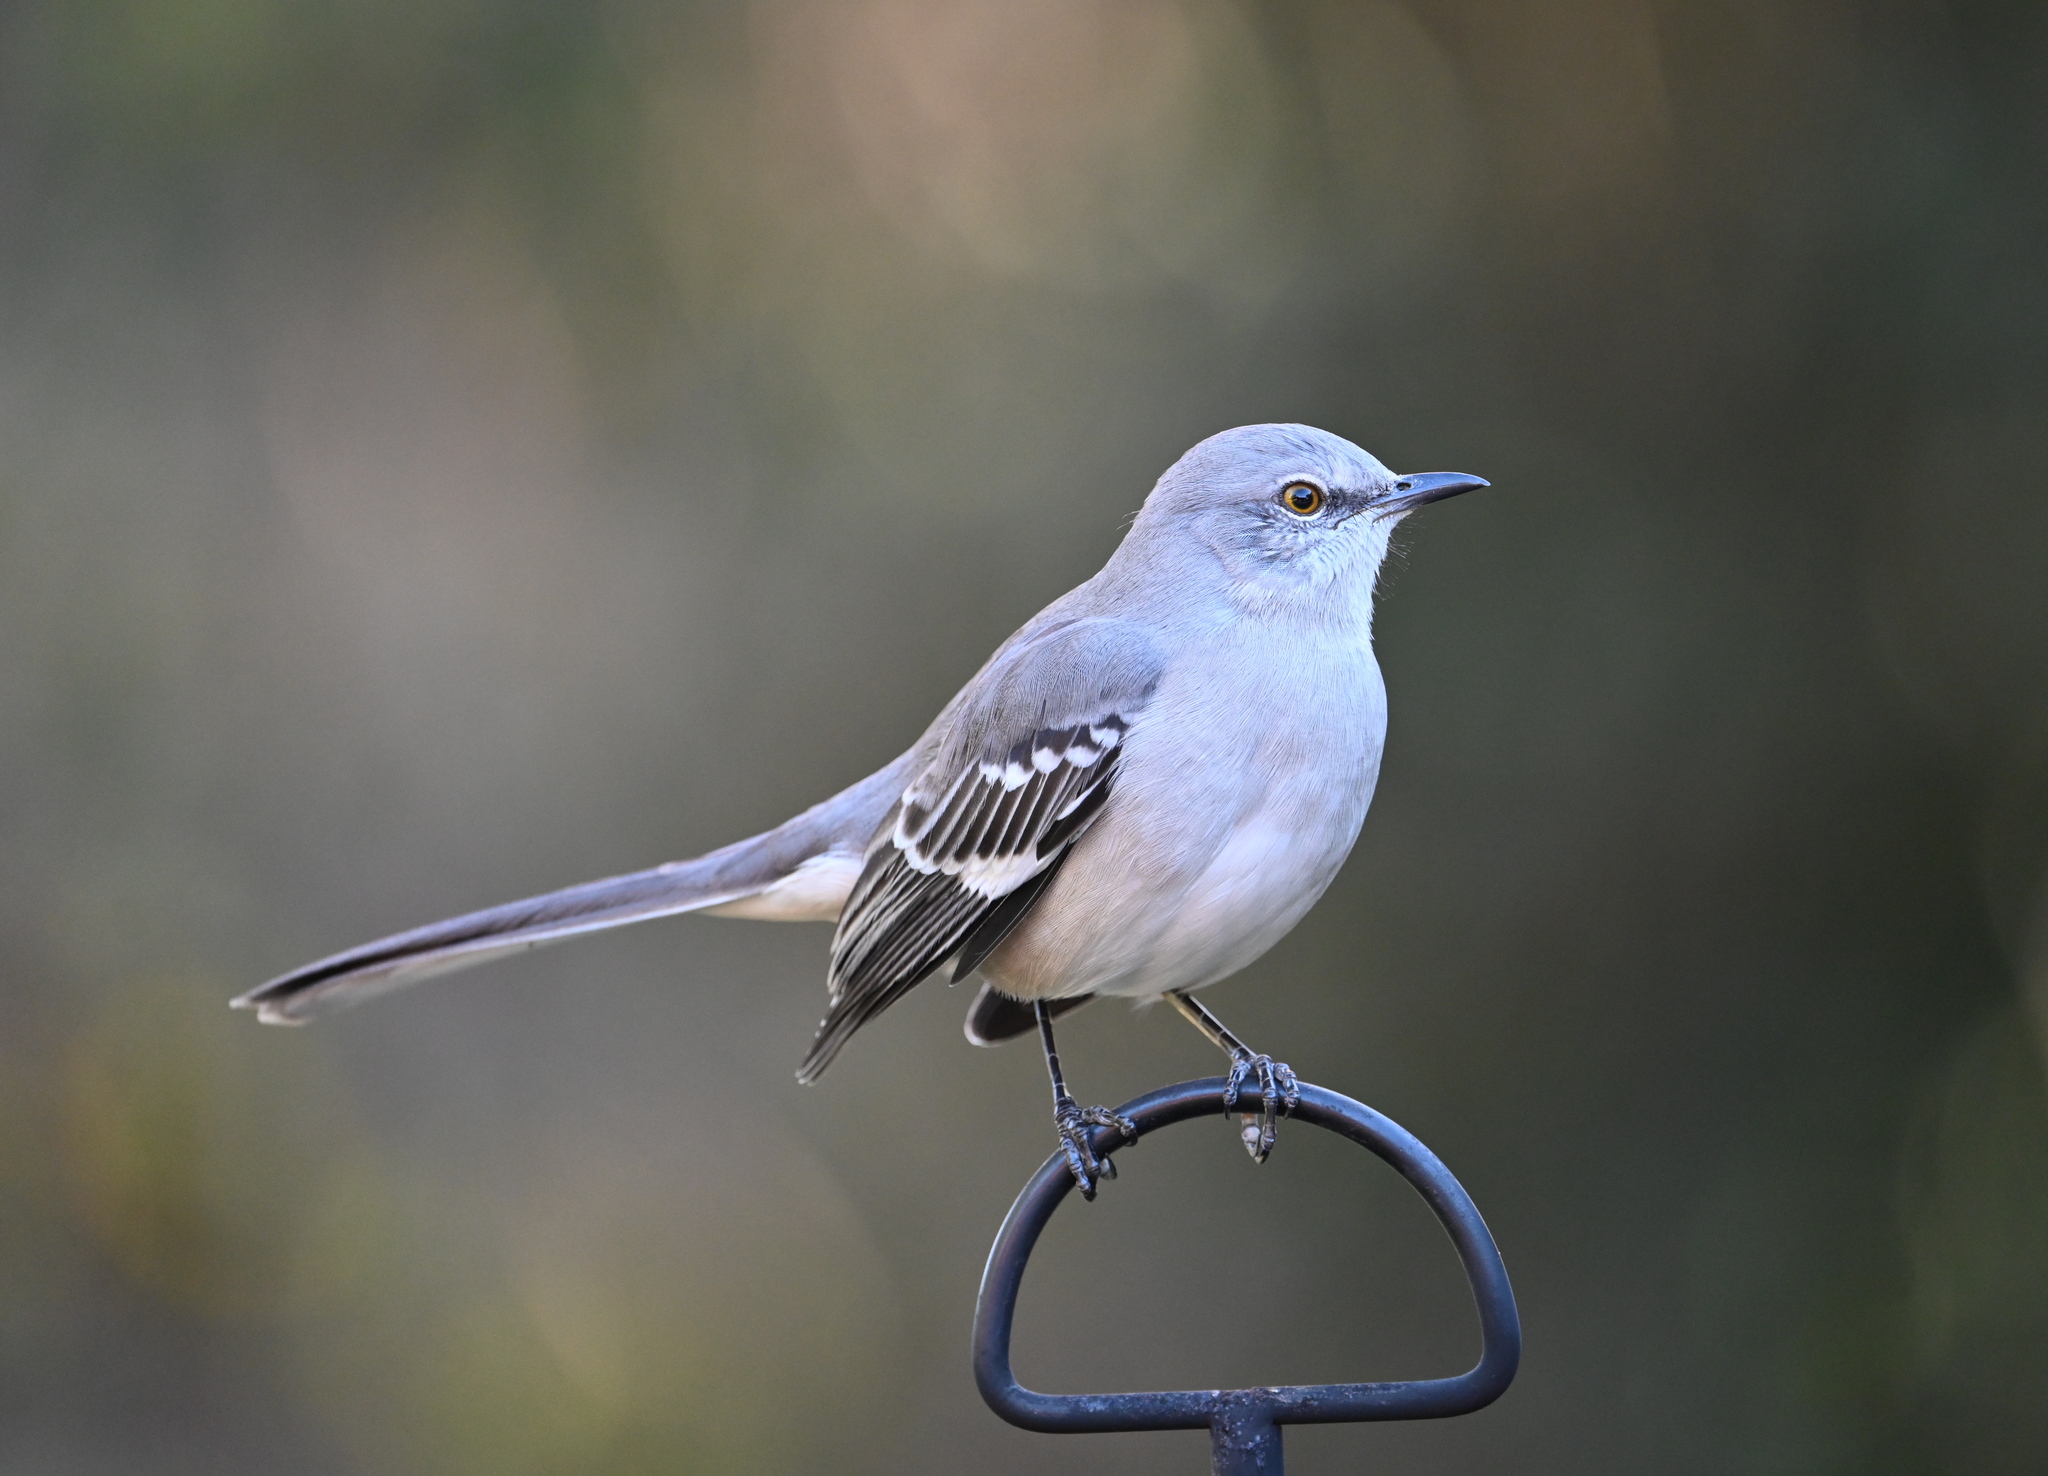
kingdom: Animalia
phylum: Chordata
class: Aves
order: Passeriformes
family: Mimidae
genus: Mimus
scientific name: Mimus polyglottos
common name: Northern mockingbird
